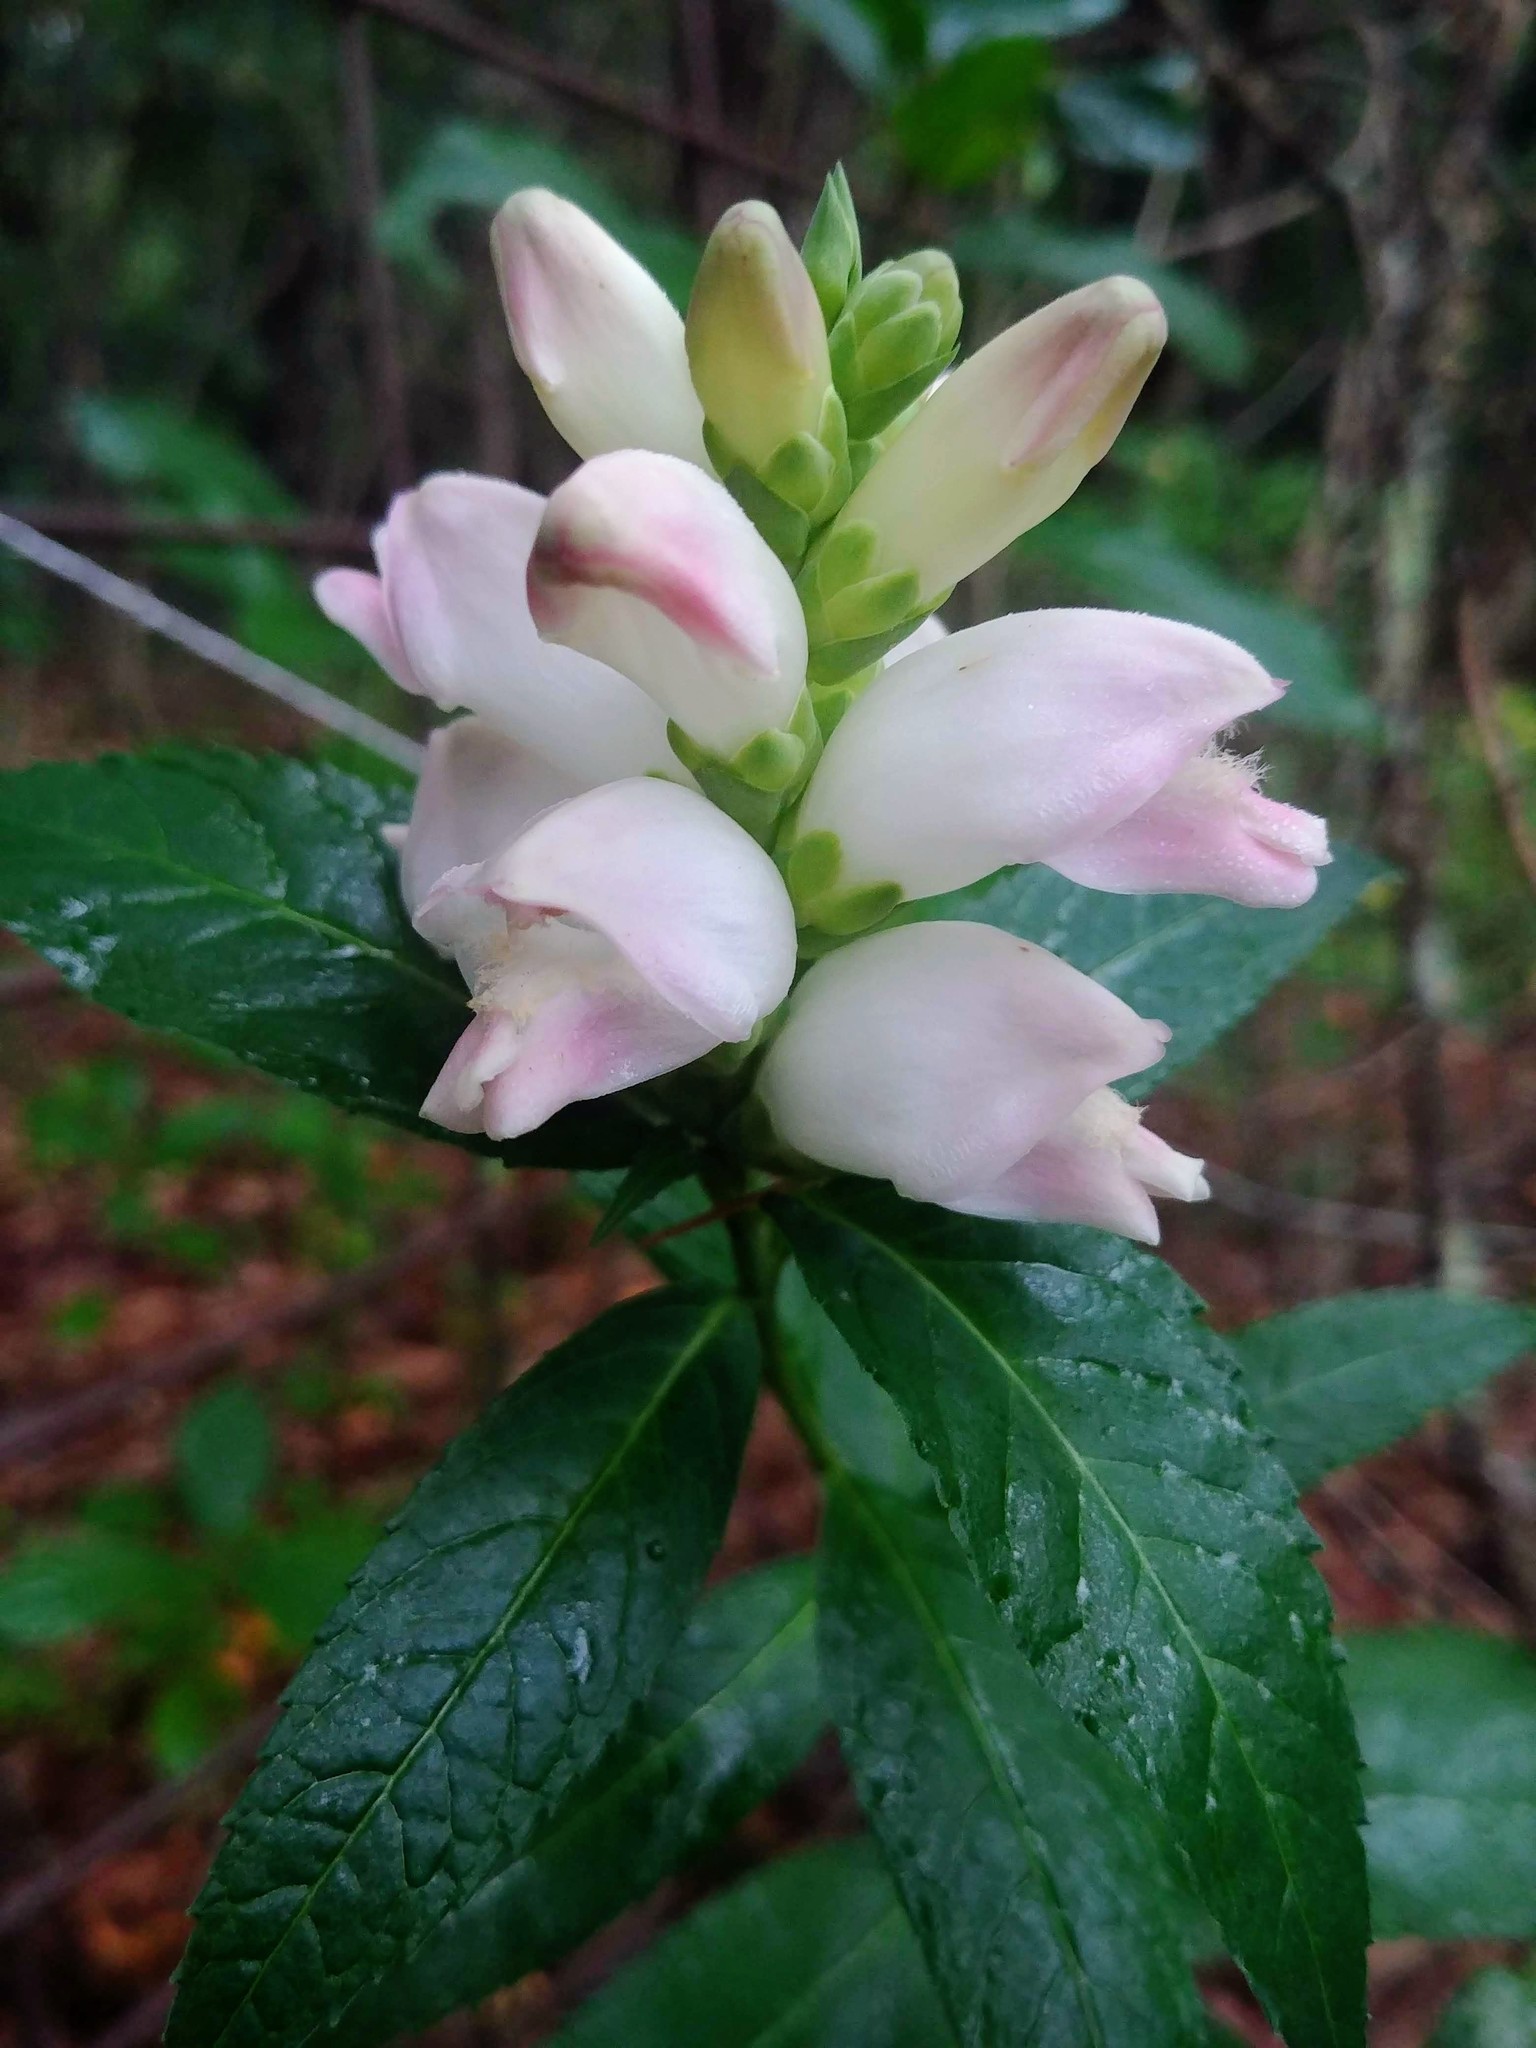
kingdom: Plantae
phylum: Tracheophyta
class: Magnoliopsida
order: Lamiales
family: Plantaginaceae
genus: Chelone
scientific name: Chelone glabra
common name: Snakehead
